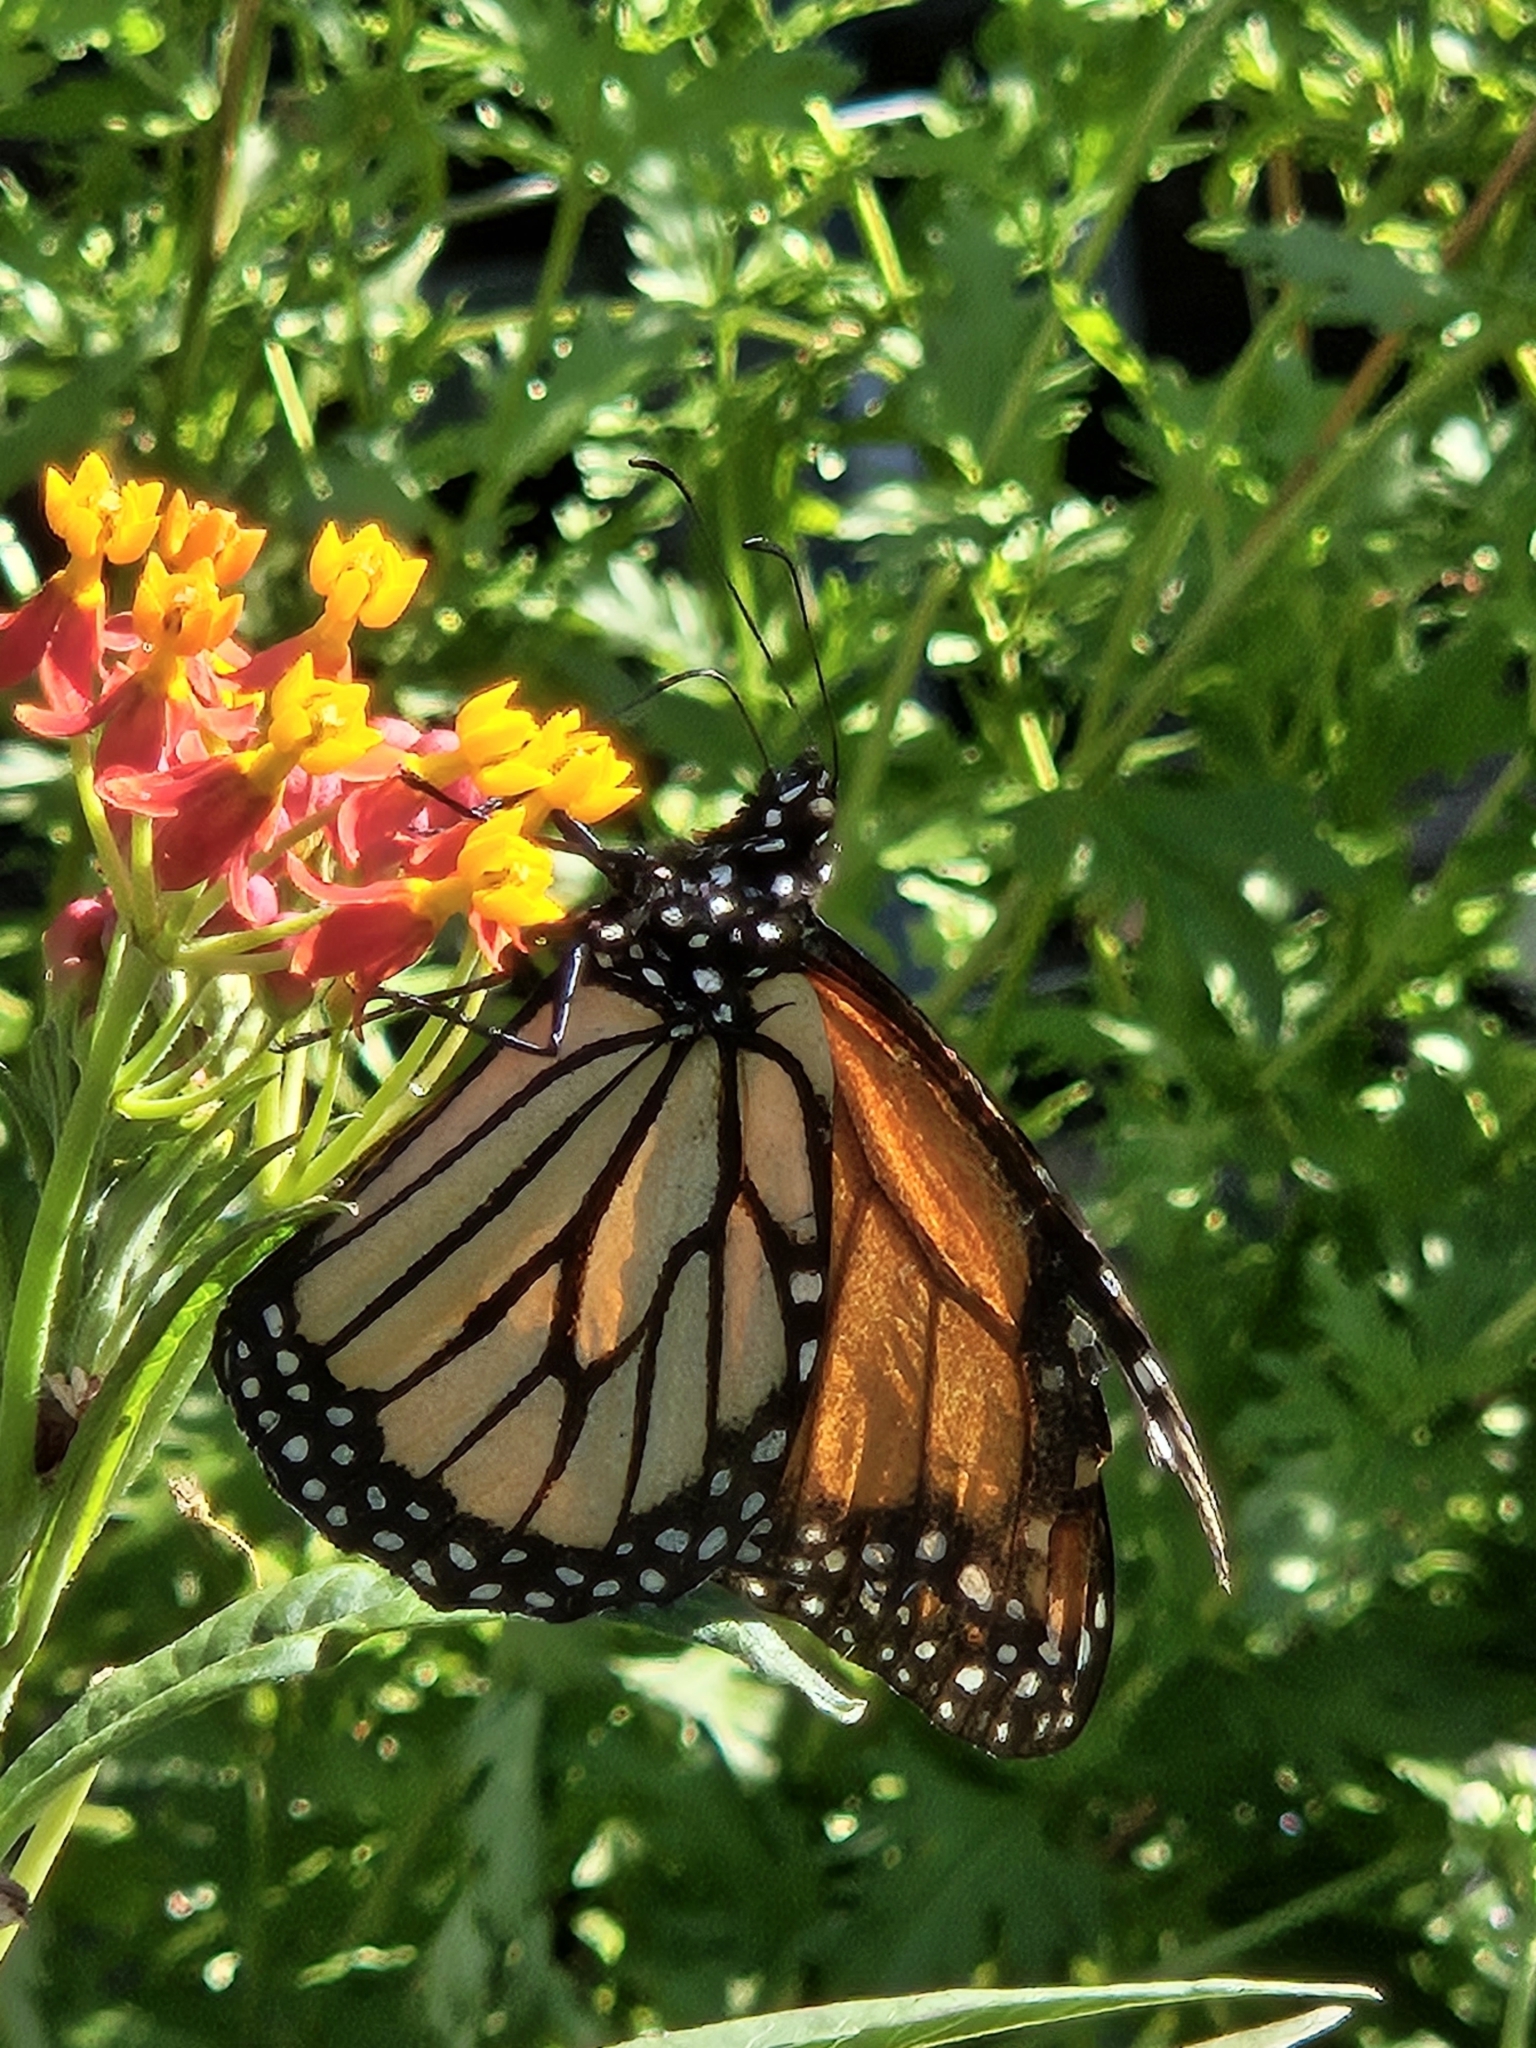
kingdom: Animalia
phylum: Arthropoda
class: Insecta
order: Lepidoptera
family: Nymphalidae
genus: Danaus
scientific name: Danaus plexippus
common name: Monarch
